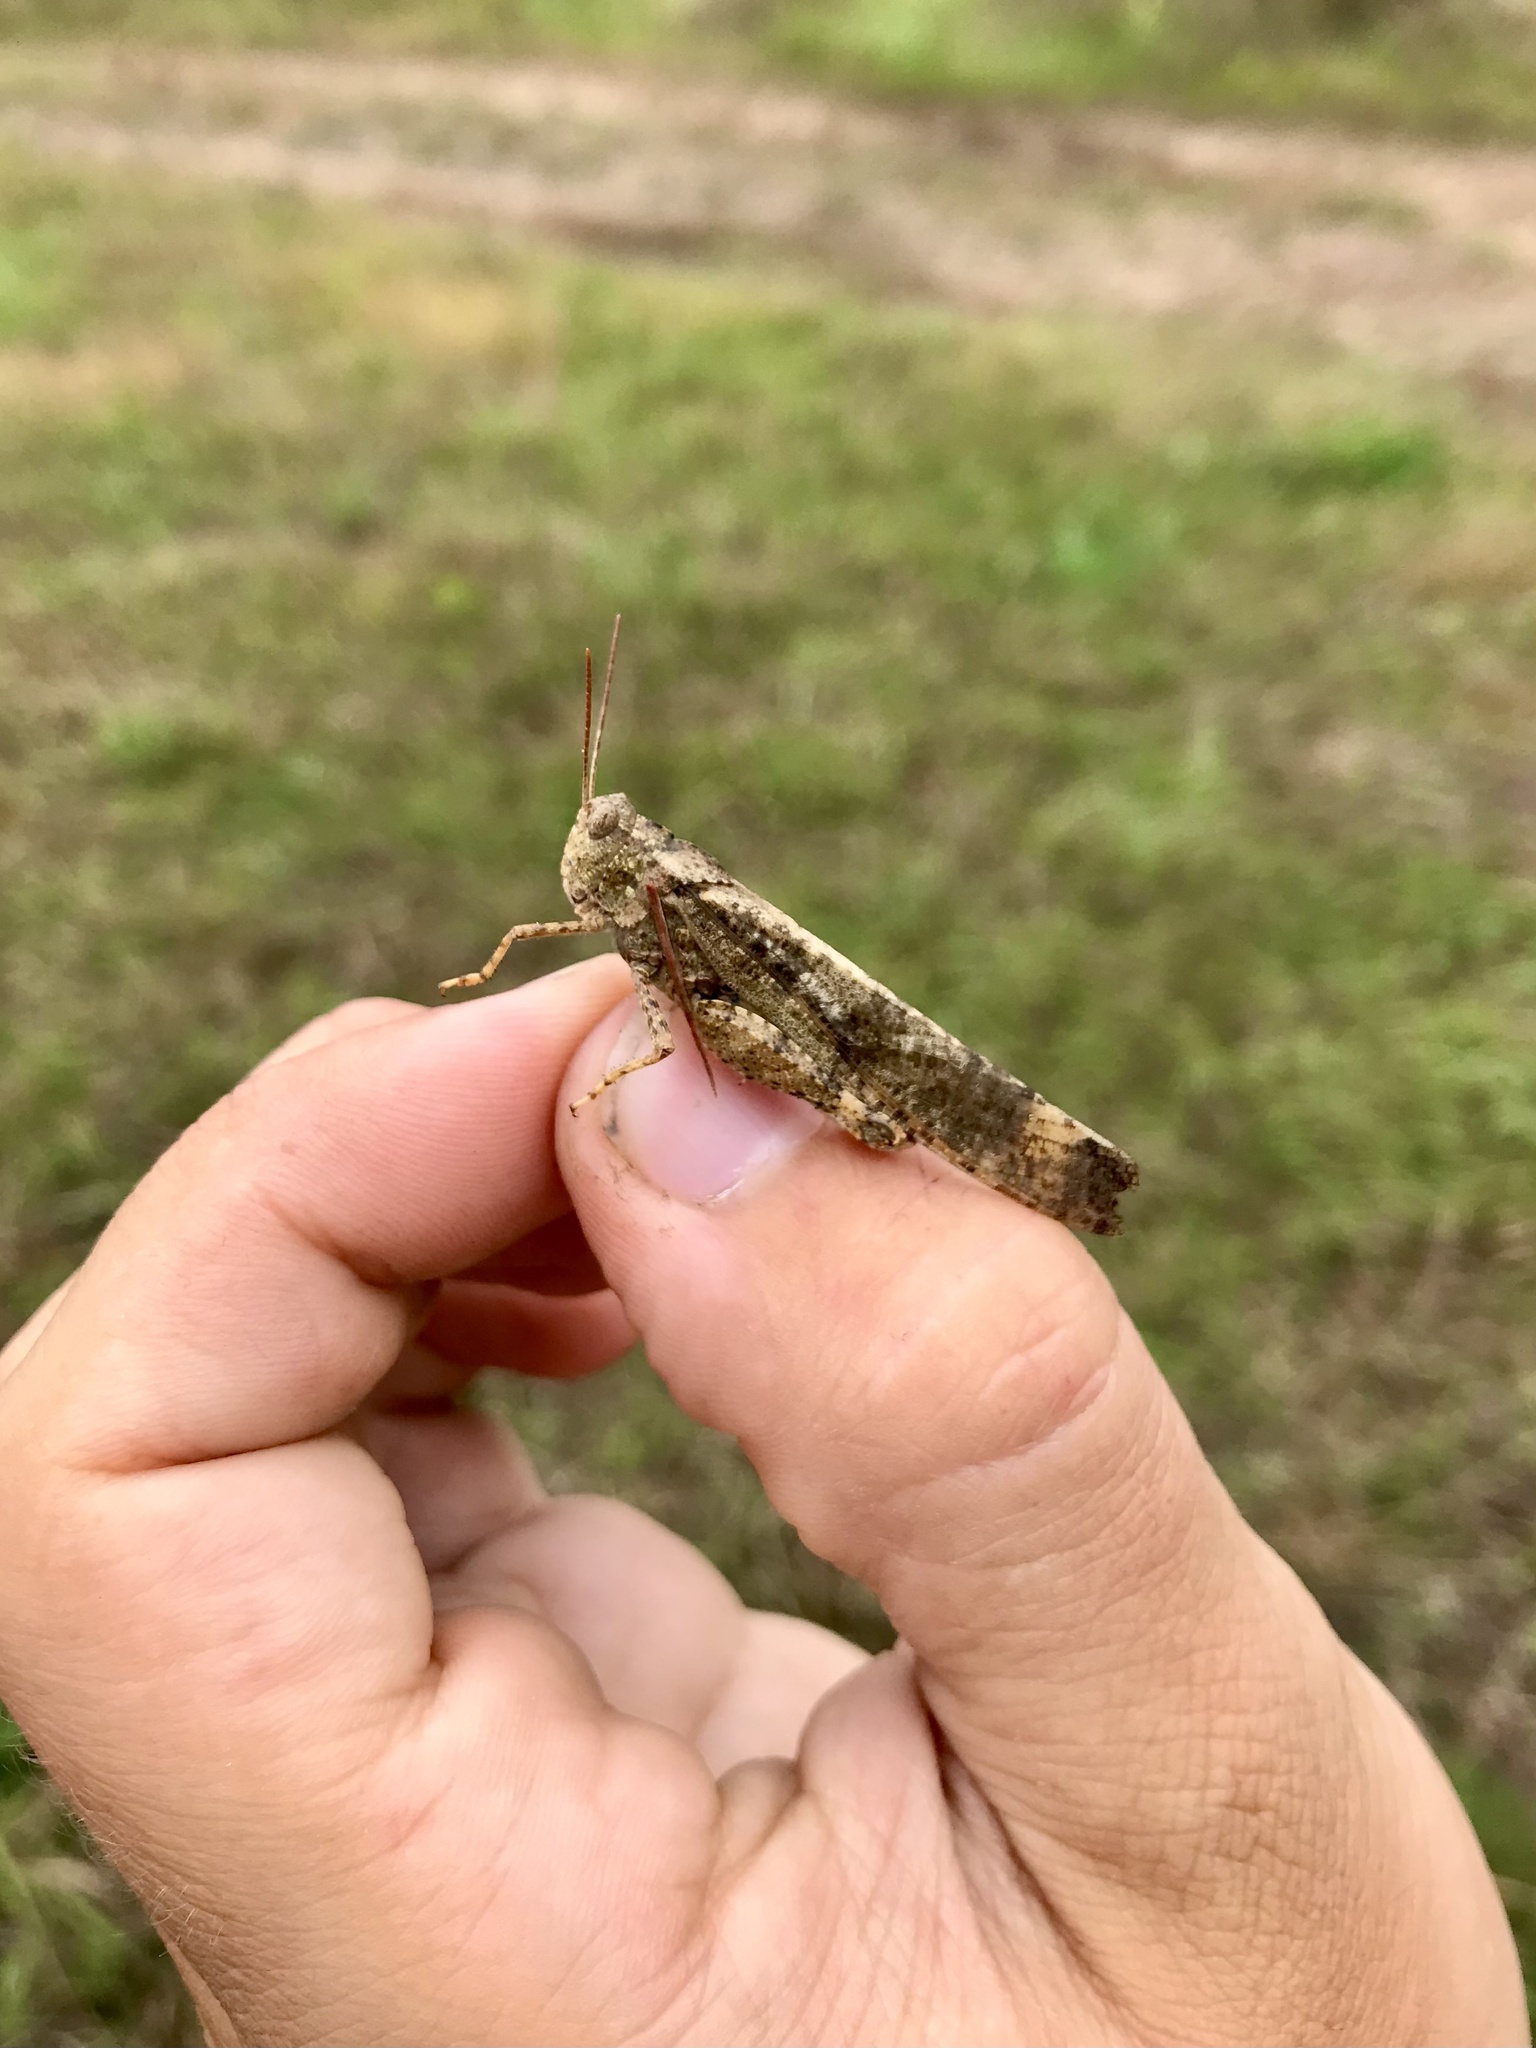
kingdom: Animalia
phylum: Arthropoda
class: Insecta
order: Orthoptera
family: Acrididae
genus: Dissosteira
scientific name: Dissosteira carolina
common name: Carolina grasshopper
